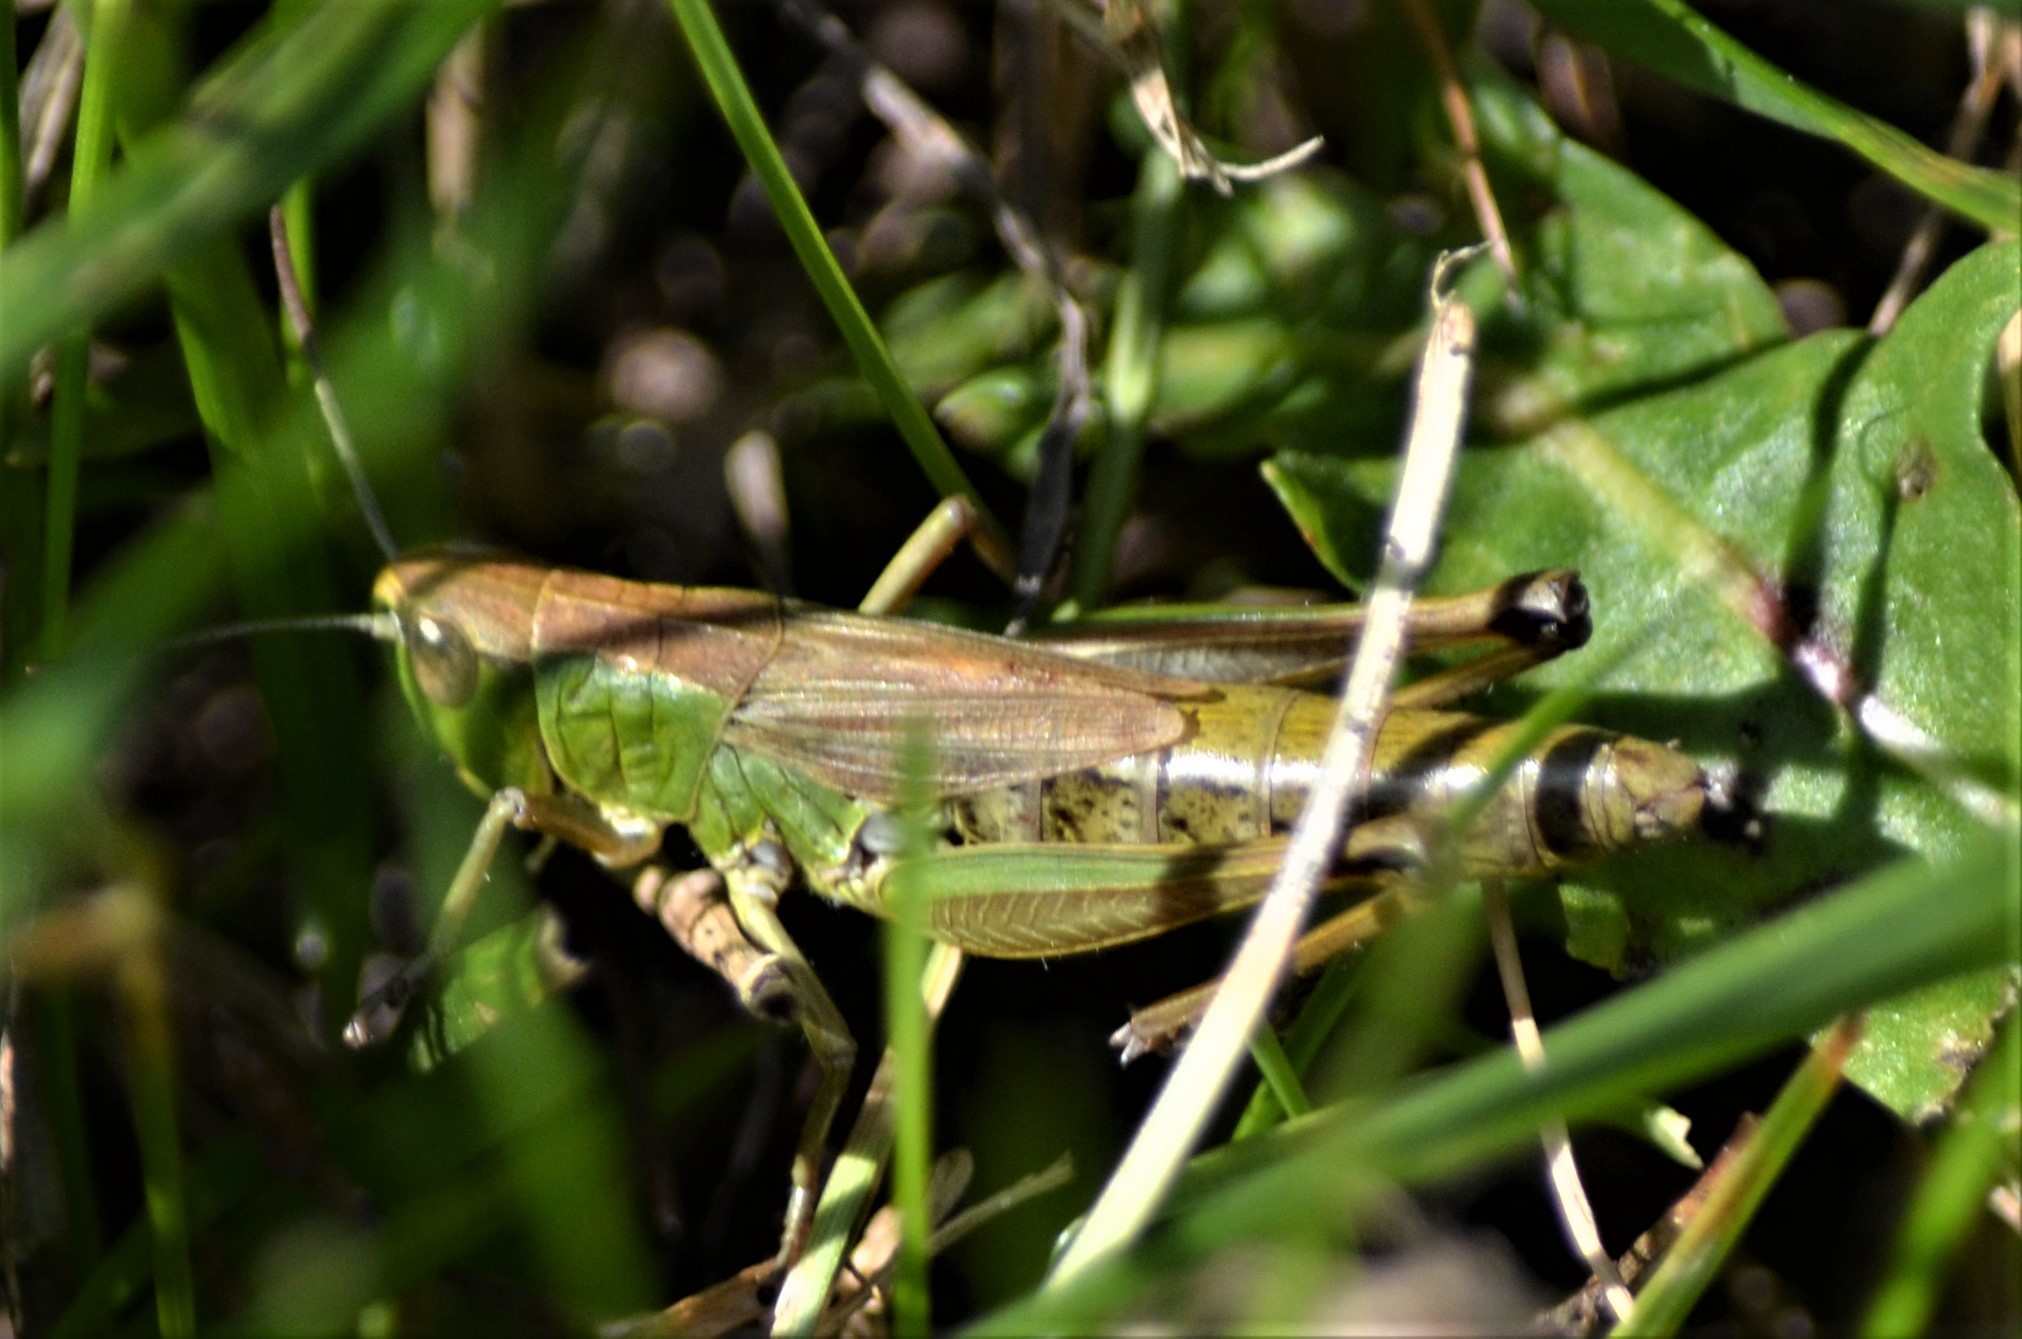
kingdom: Animalia
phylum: Arthropoda
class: Insecta
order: Orthoptera
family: Acrididae
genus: Pseudochorthippus
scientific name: Pseudochorthippus parallelus
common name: Meadow grasshopper
